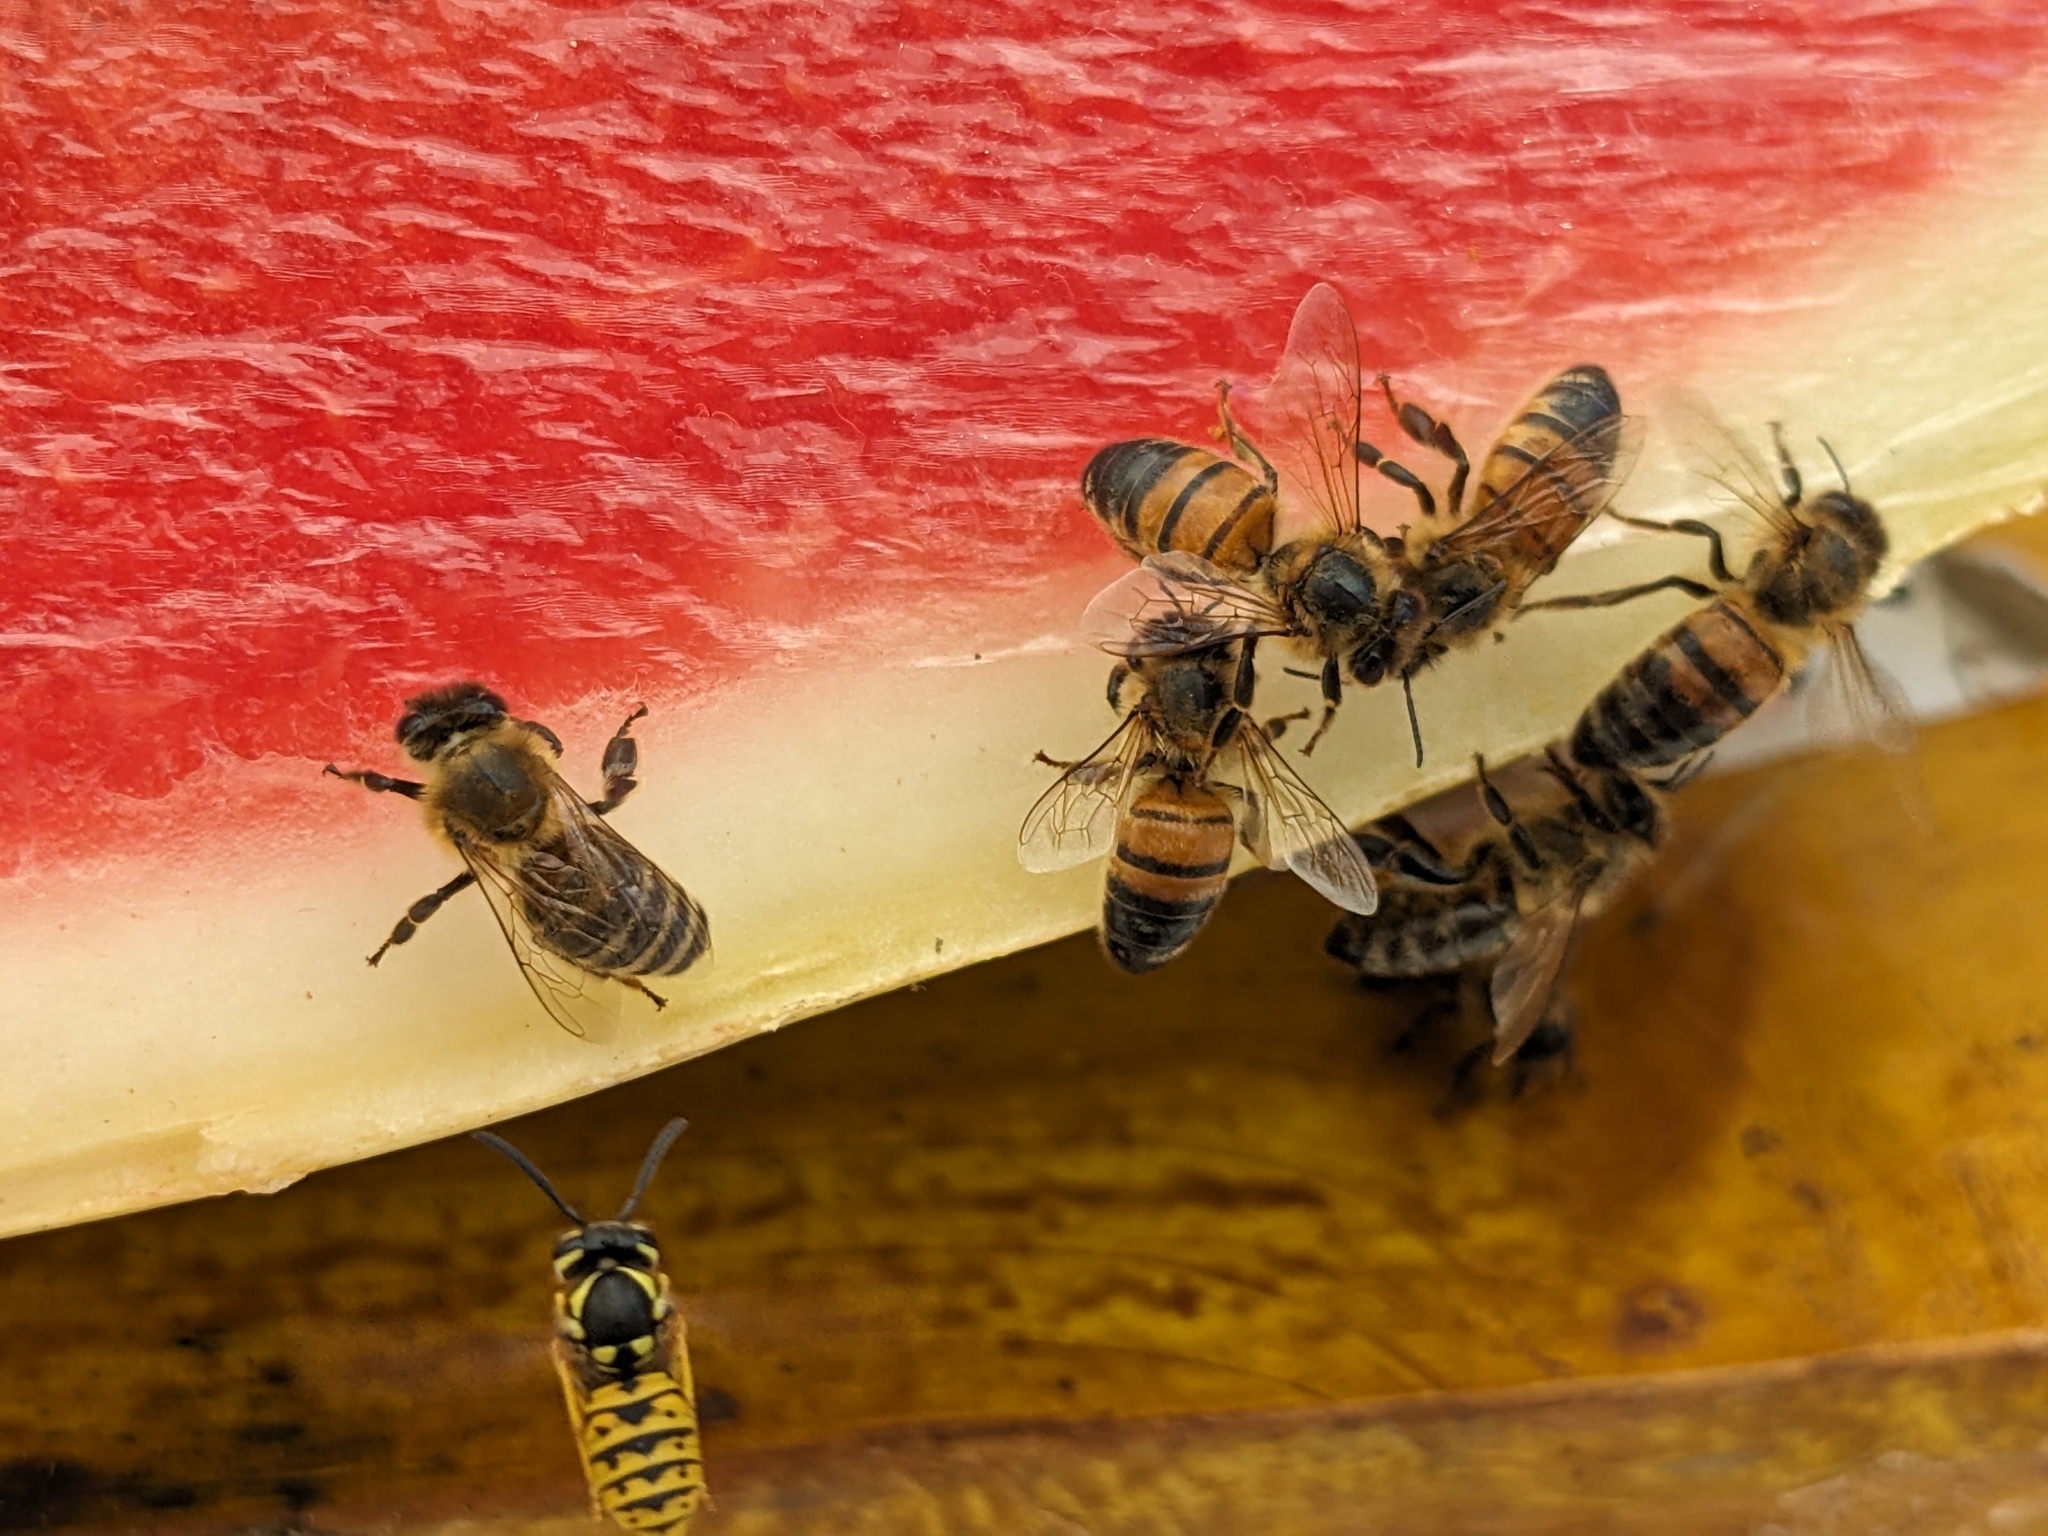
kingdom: Animalia
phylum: Arthropoda
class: Insecta
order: Hymenoptera
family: Apidae
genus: Apis
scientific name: Apis mellifera
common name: Honey bee
